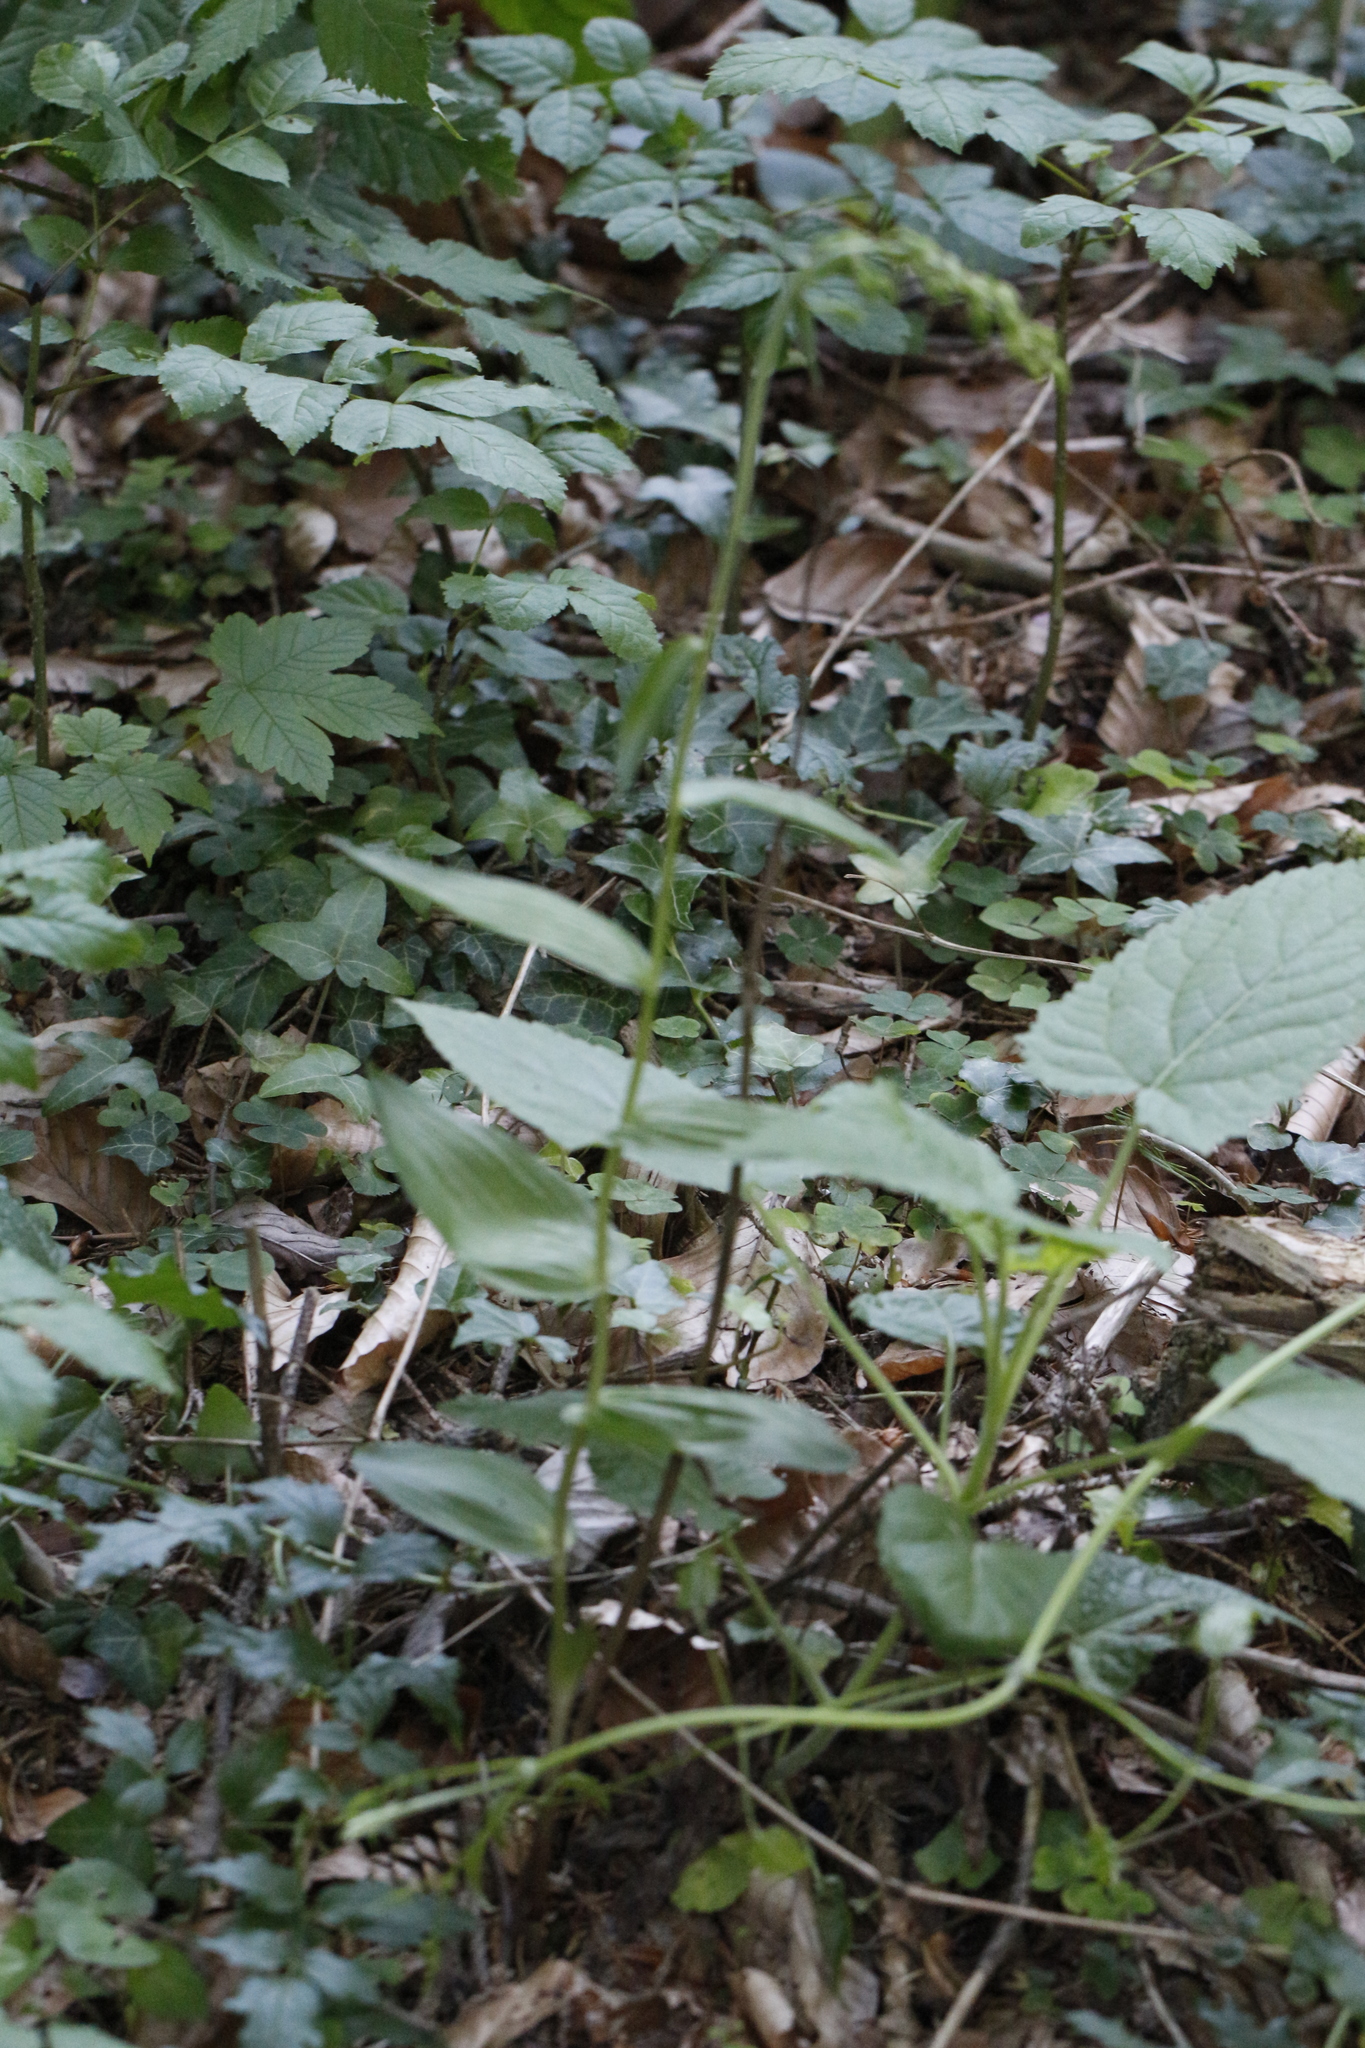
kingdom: Plantae
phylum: Tracheophyta
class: Liliopsida
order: Asparagales
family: Orchidaceae
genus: Epipactis
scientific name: Epipactis helleborine
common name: Broad-leaved helleborine
